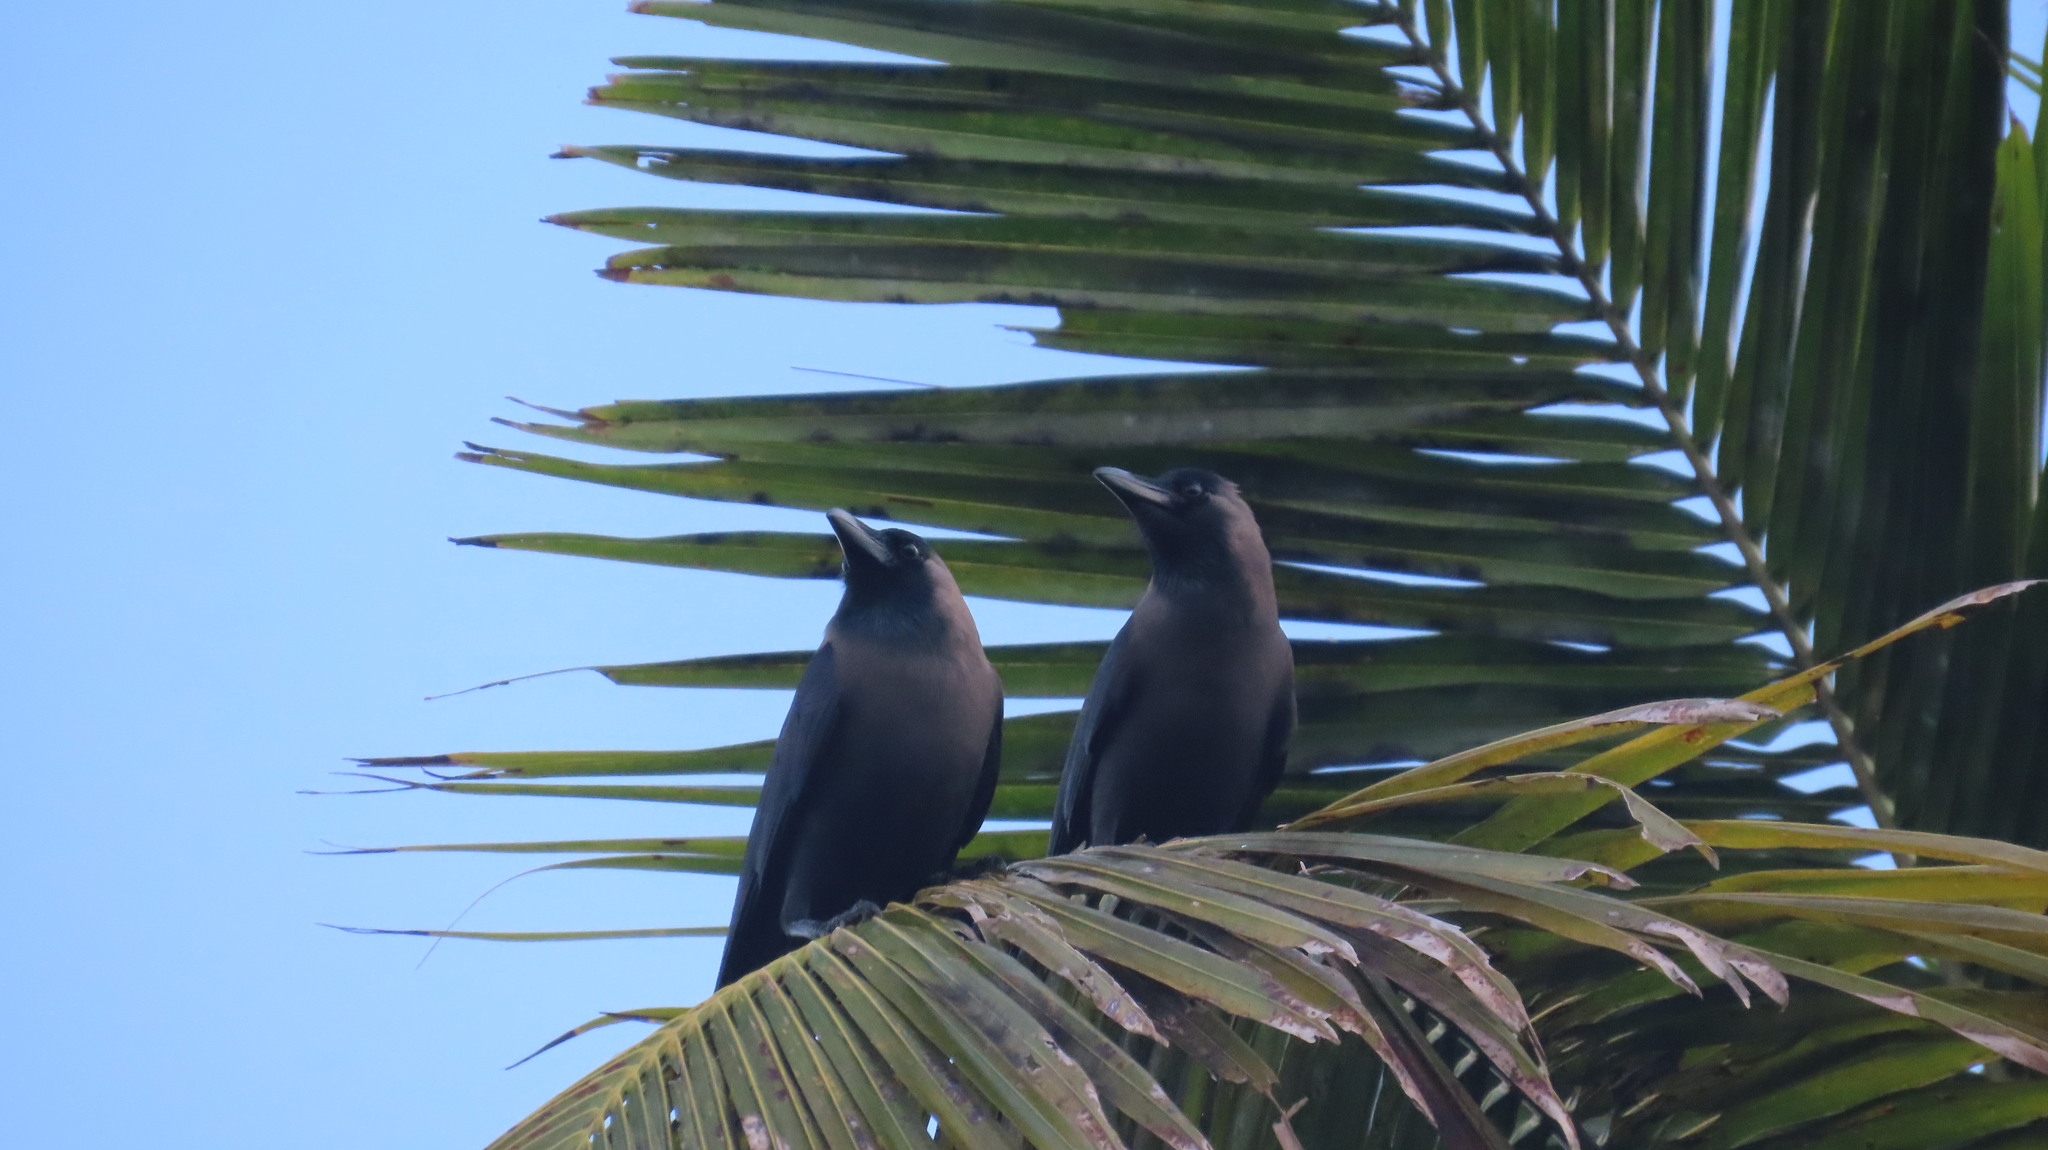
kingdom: Animalia
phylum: Chordata
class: Aves
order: Passeriformes
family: Corvidae
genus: Corvus
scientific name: Corvus splendens
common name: House crow
